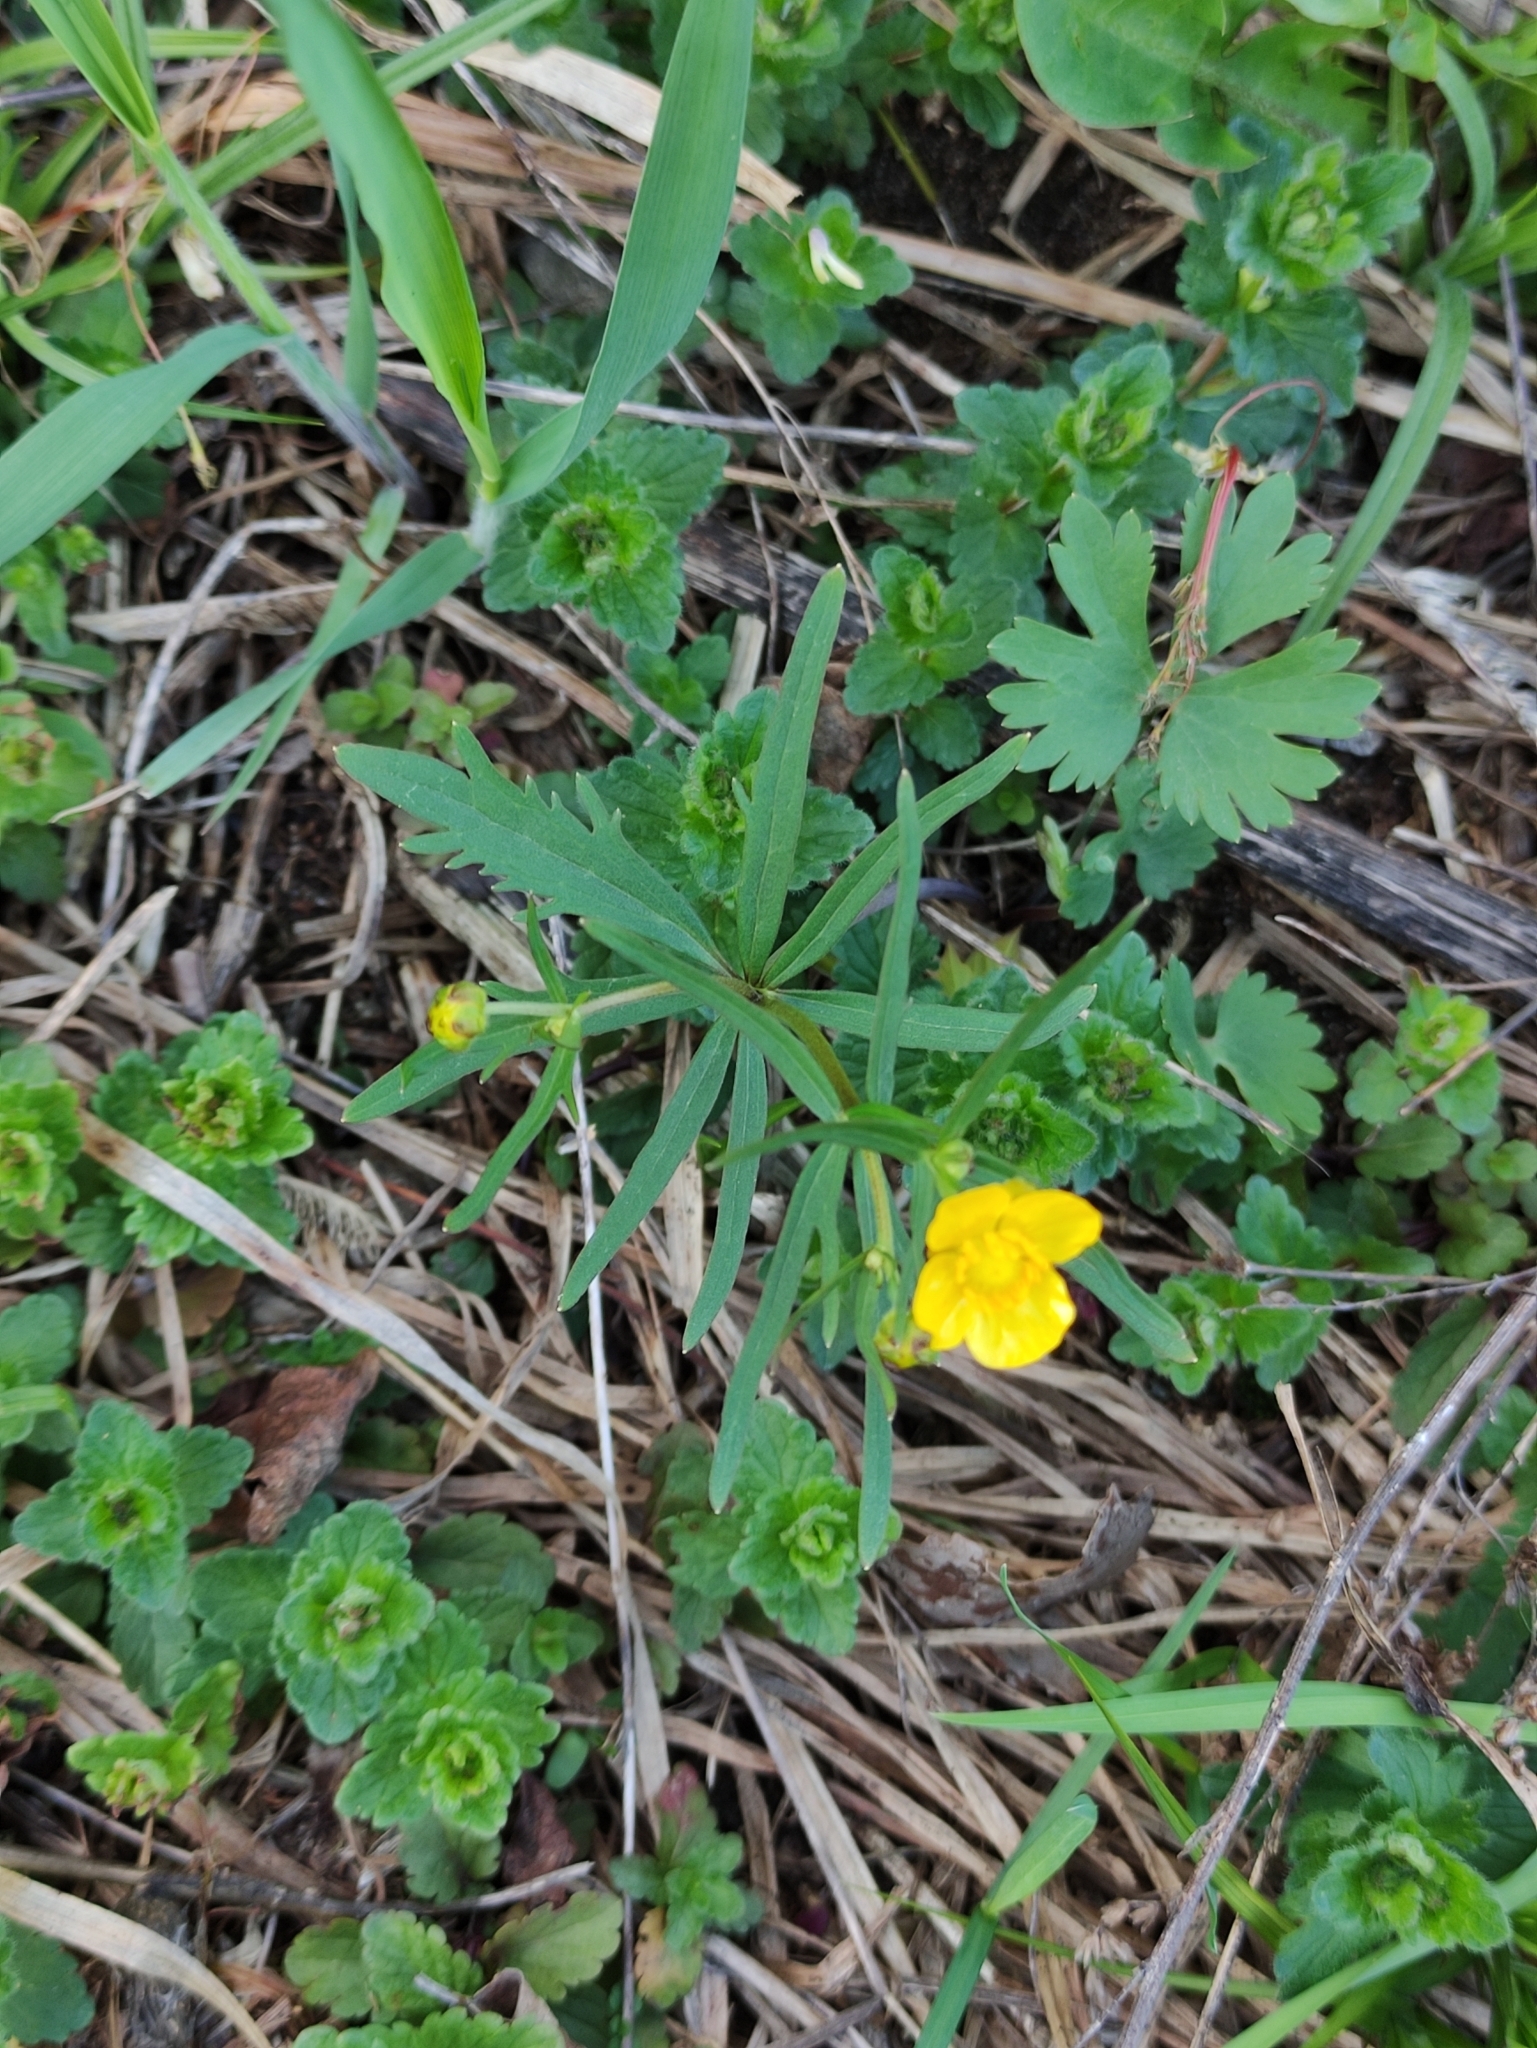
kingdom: Plantae
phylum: Tracheophyta
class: Magnoliopsida
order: Ranunculales
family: Ranunculaceae
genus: Ranunculus
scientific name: Ranunculus auricomus
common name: Goldilocks buttercup
